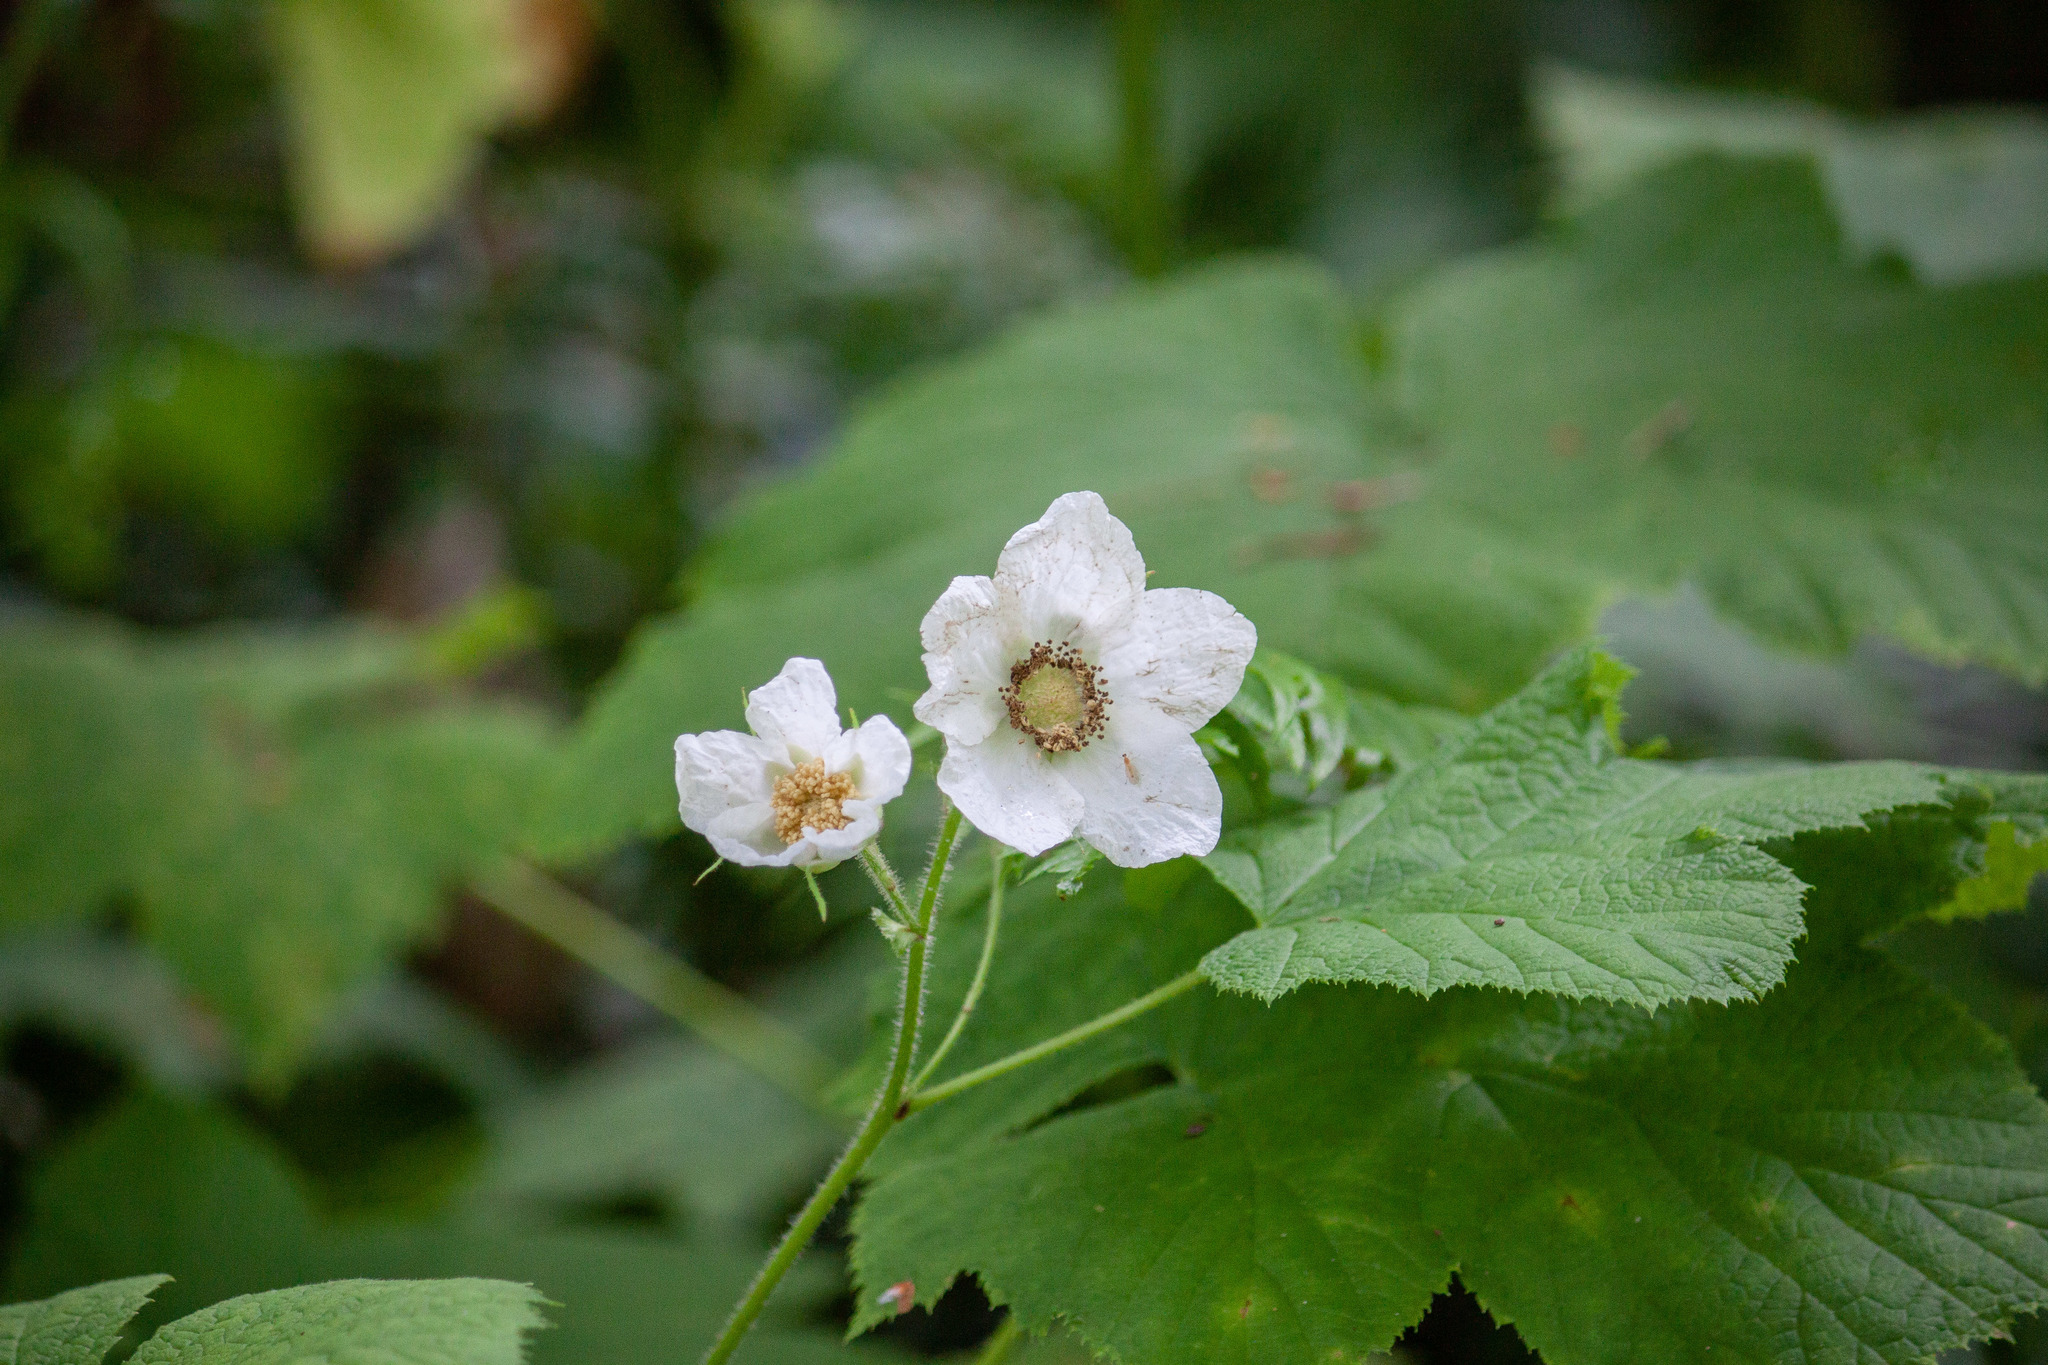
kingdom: Plantae
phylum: Tracheophyta
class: Magnoliopsida
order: Rosales
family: Rosaceae
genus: Rubus
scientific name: Rubus parviflorus
